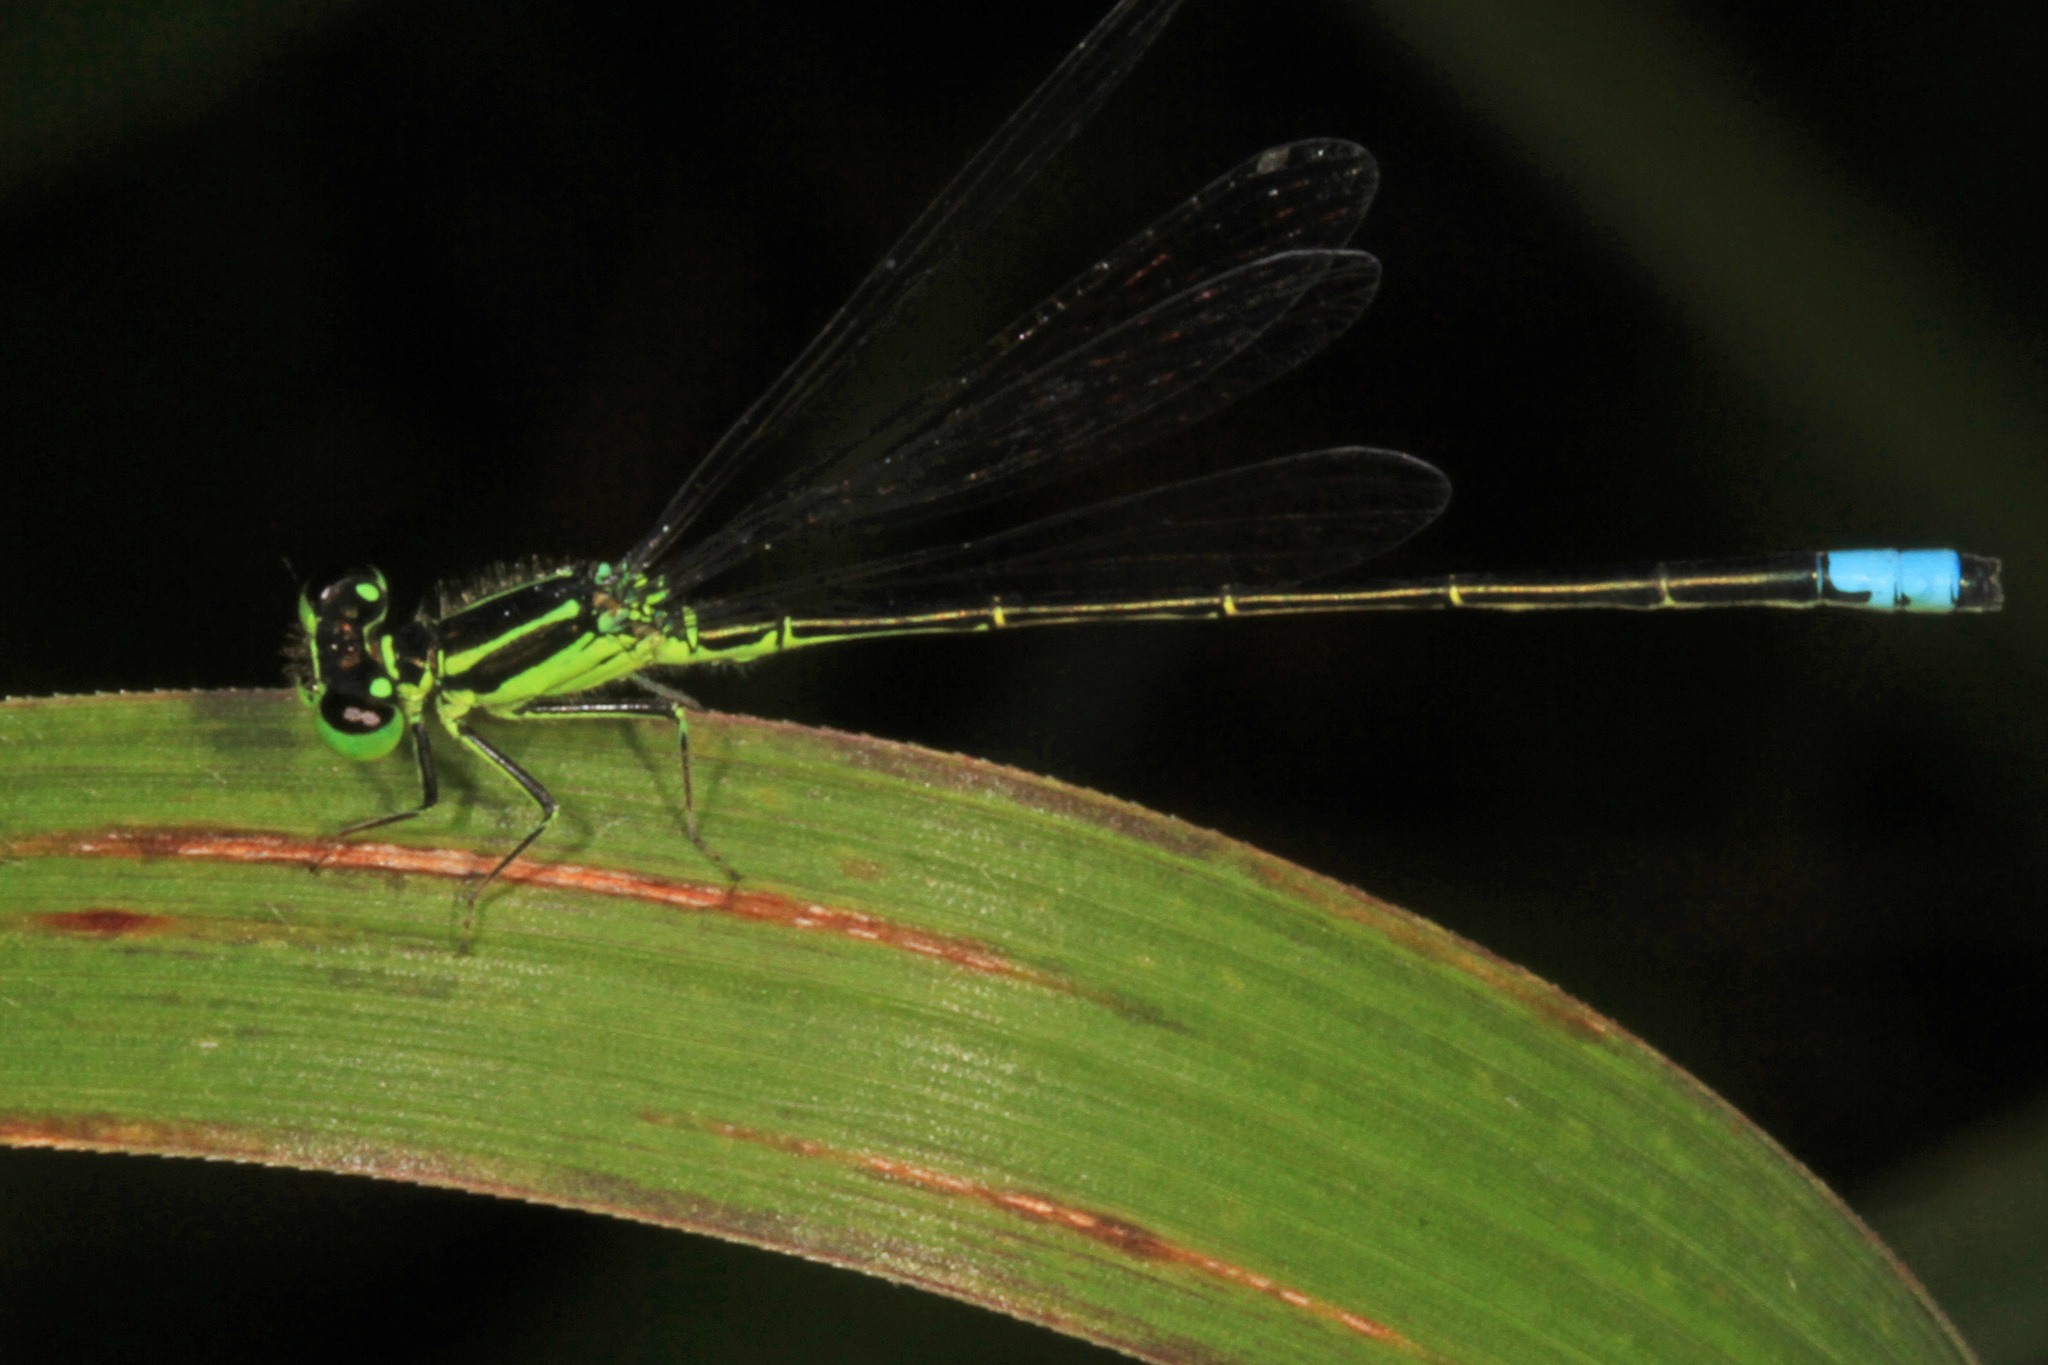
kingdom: Animalia
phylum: Arthropoda
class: Insecta
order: Odonata
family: Coenagrionidae
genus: Ischnura
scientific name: Ischnura verticalis
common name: Eastern forktail
